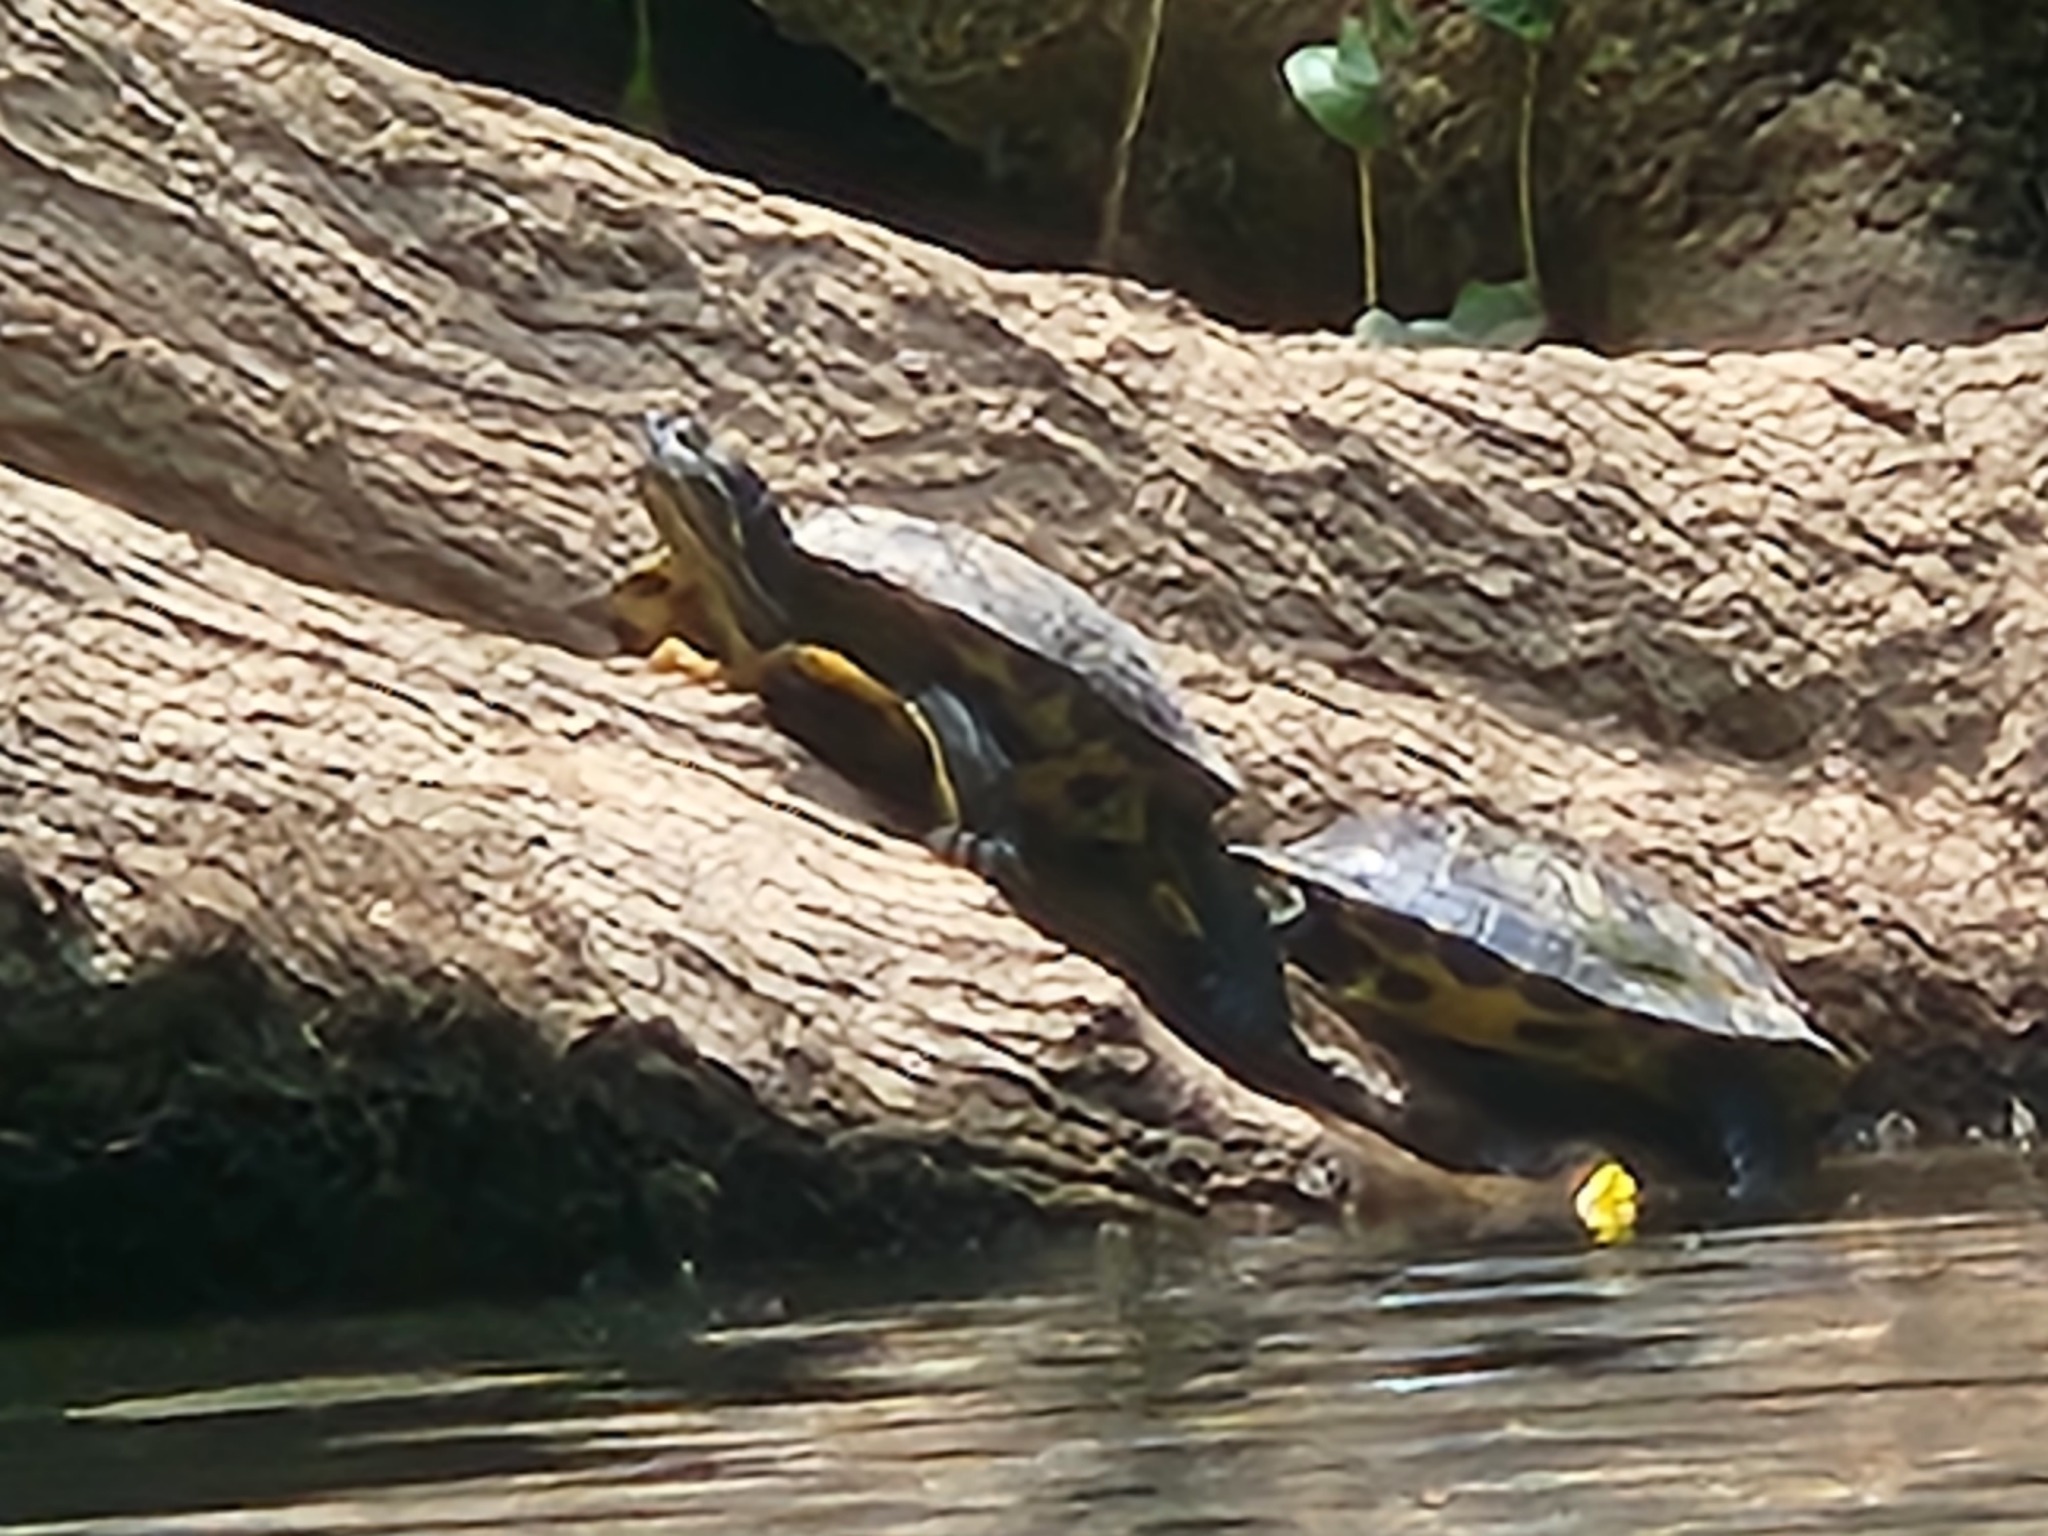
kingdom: Animalia
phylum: Chordata
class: Testudines
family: Emydidae
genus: Trachemys
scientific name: Trachemys scripta
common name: Slider
